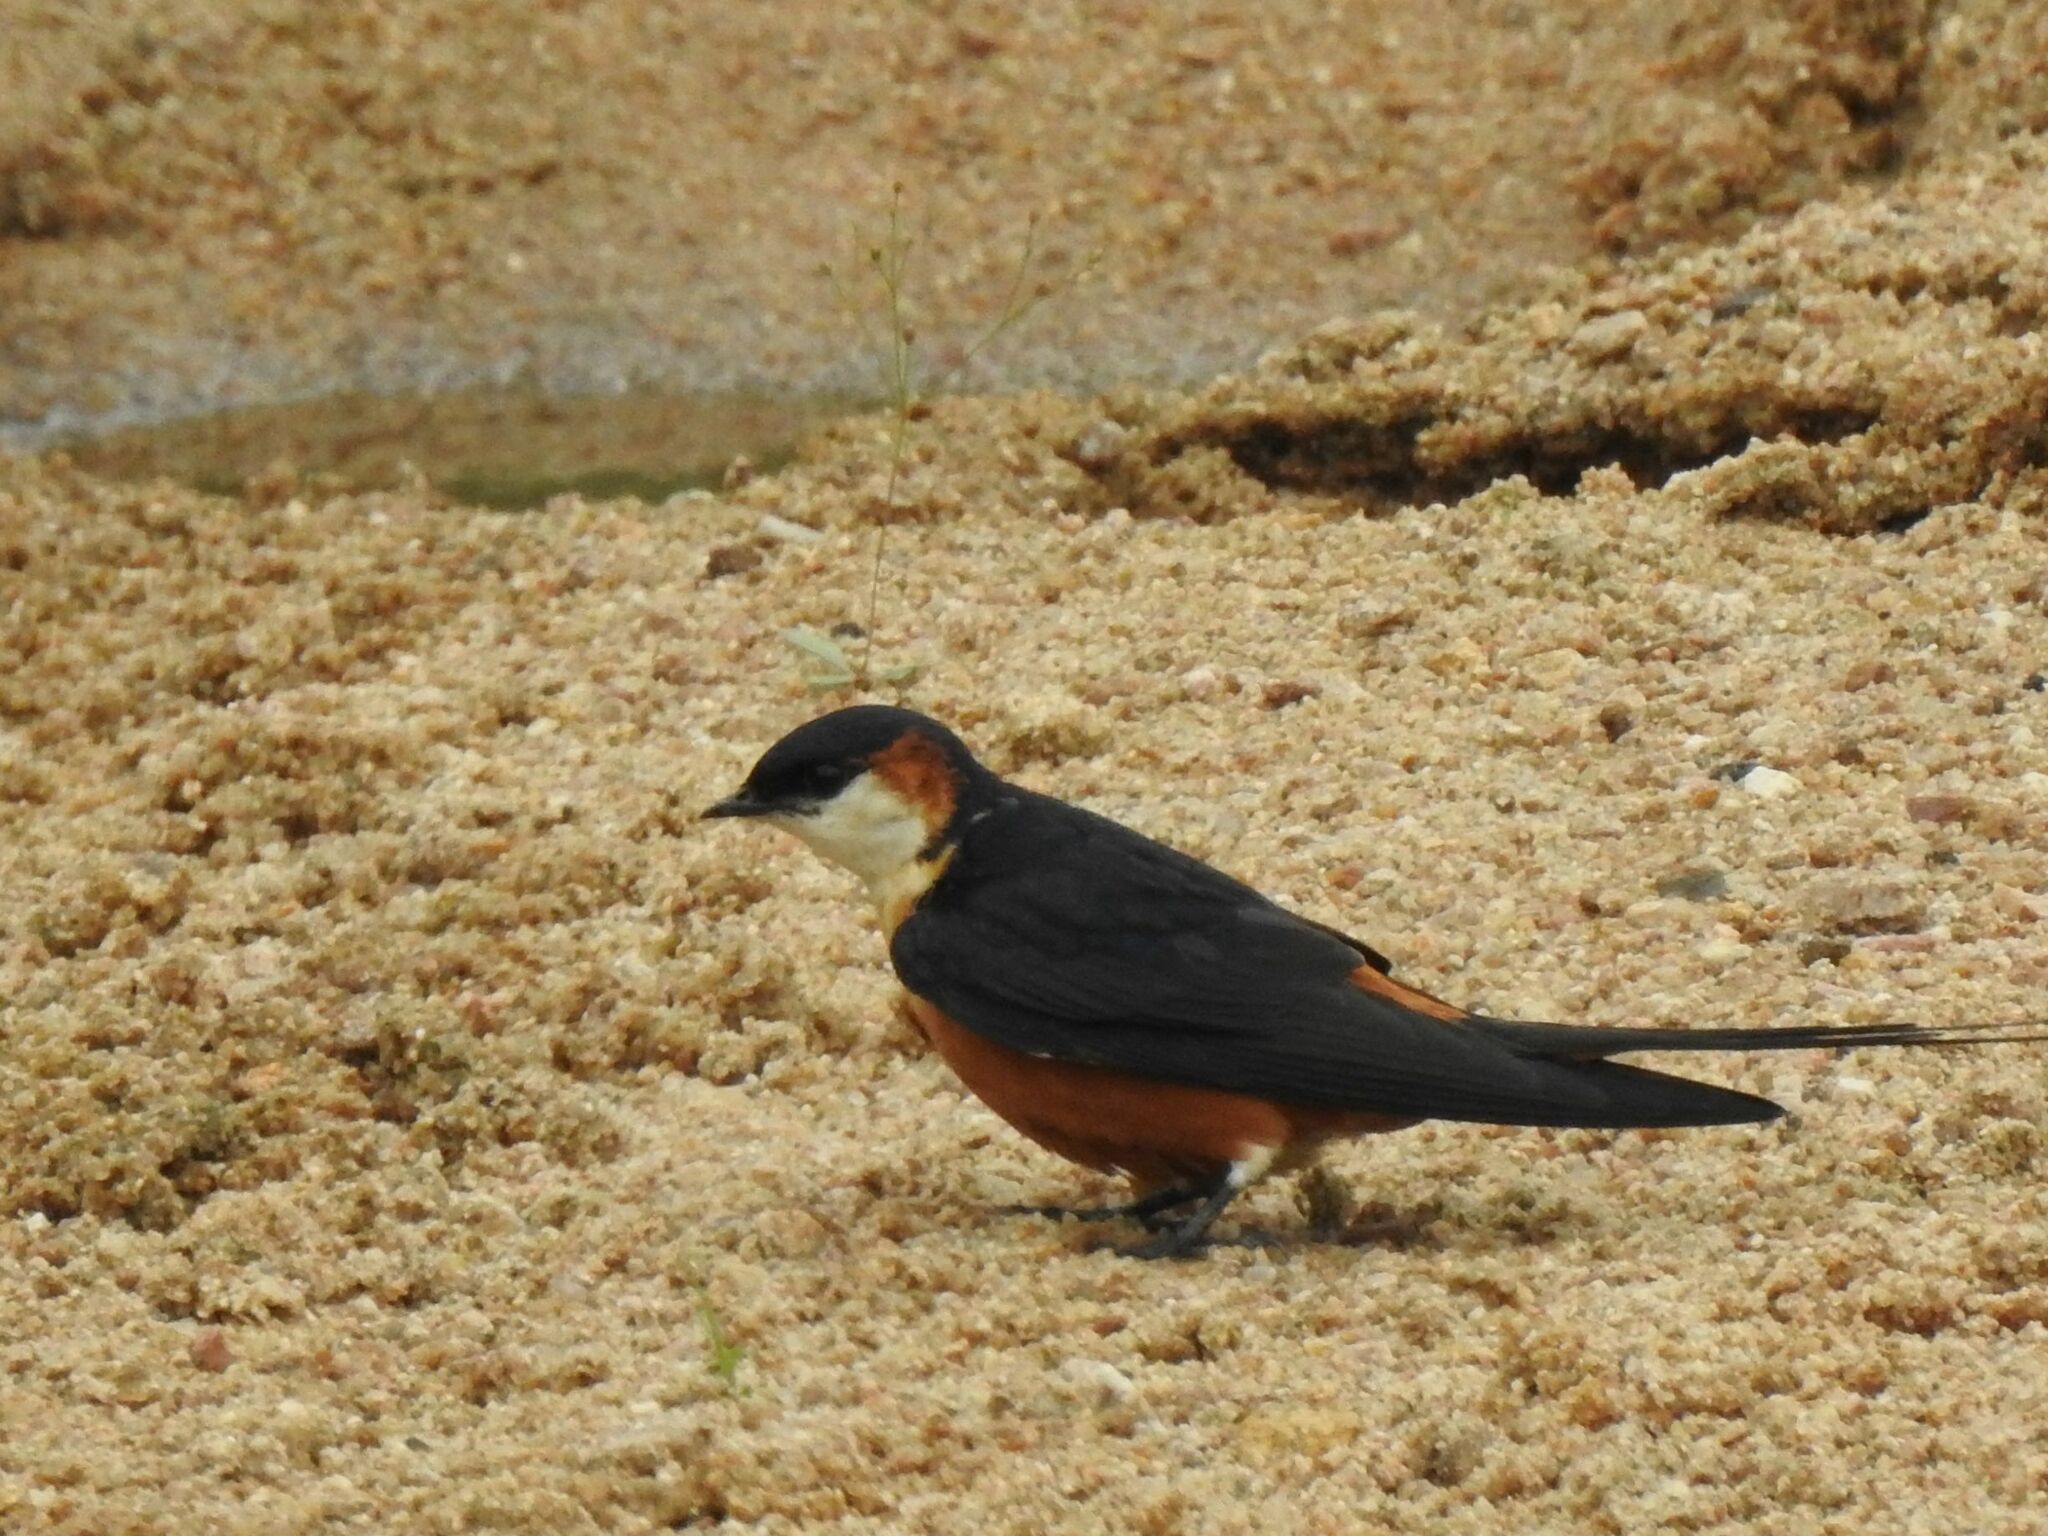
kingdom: Animalia
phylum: Chordata
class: Aves
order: Passeriformes
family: Hirundinidae
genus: Cecropis
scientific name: Cecropis senegalensis
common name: Mosque swallow
